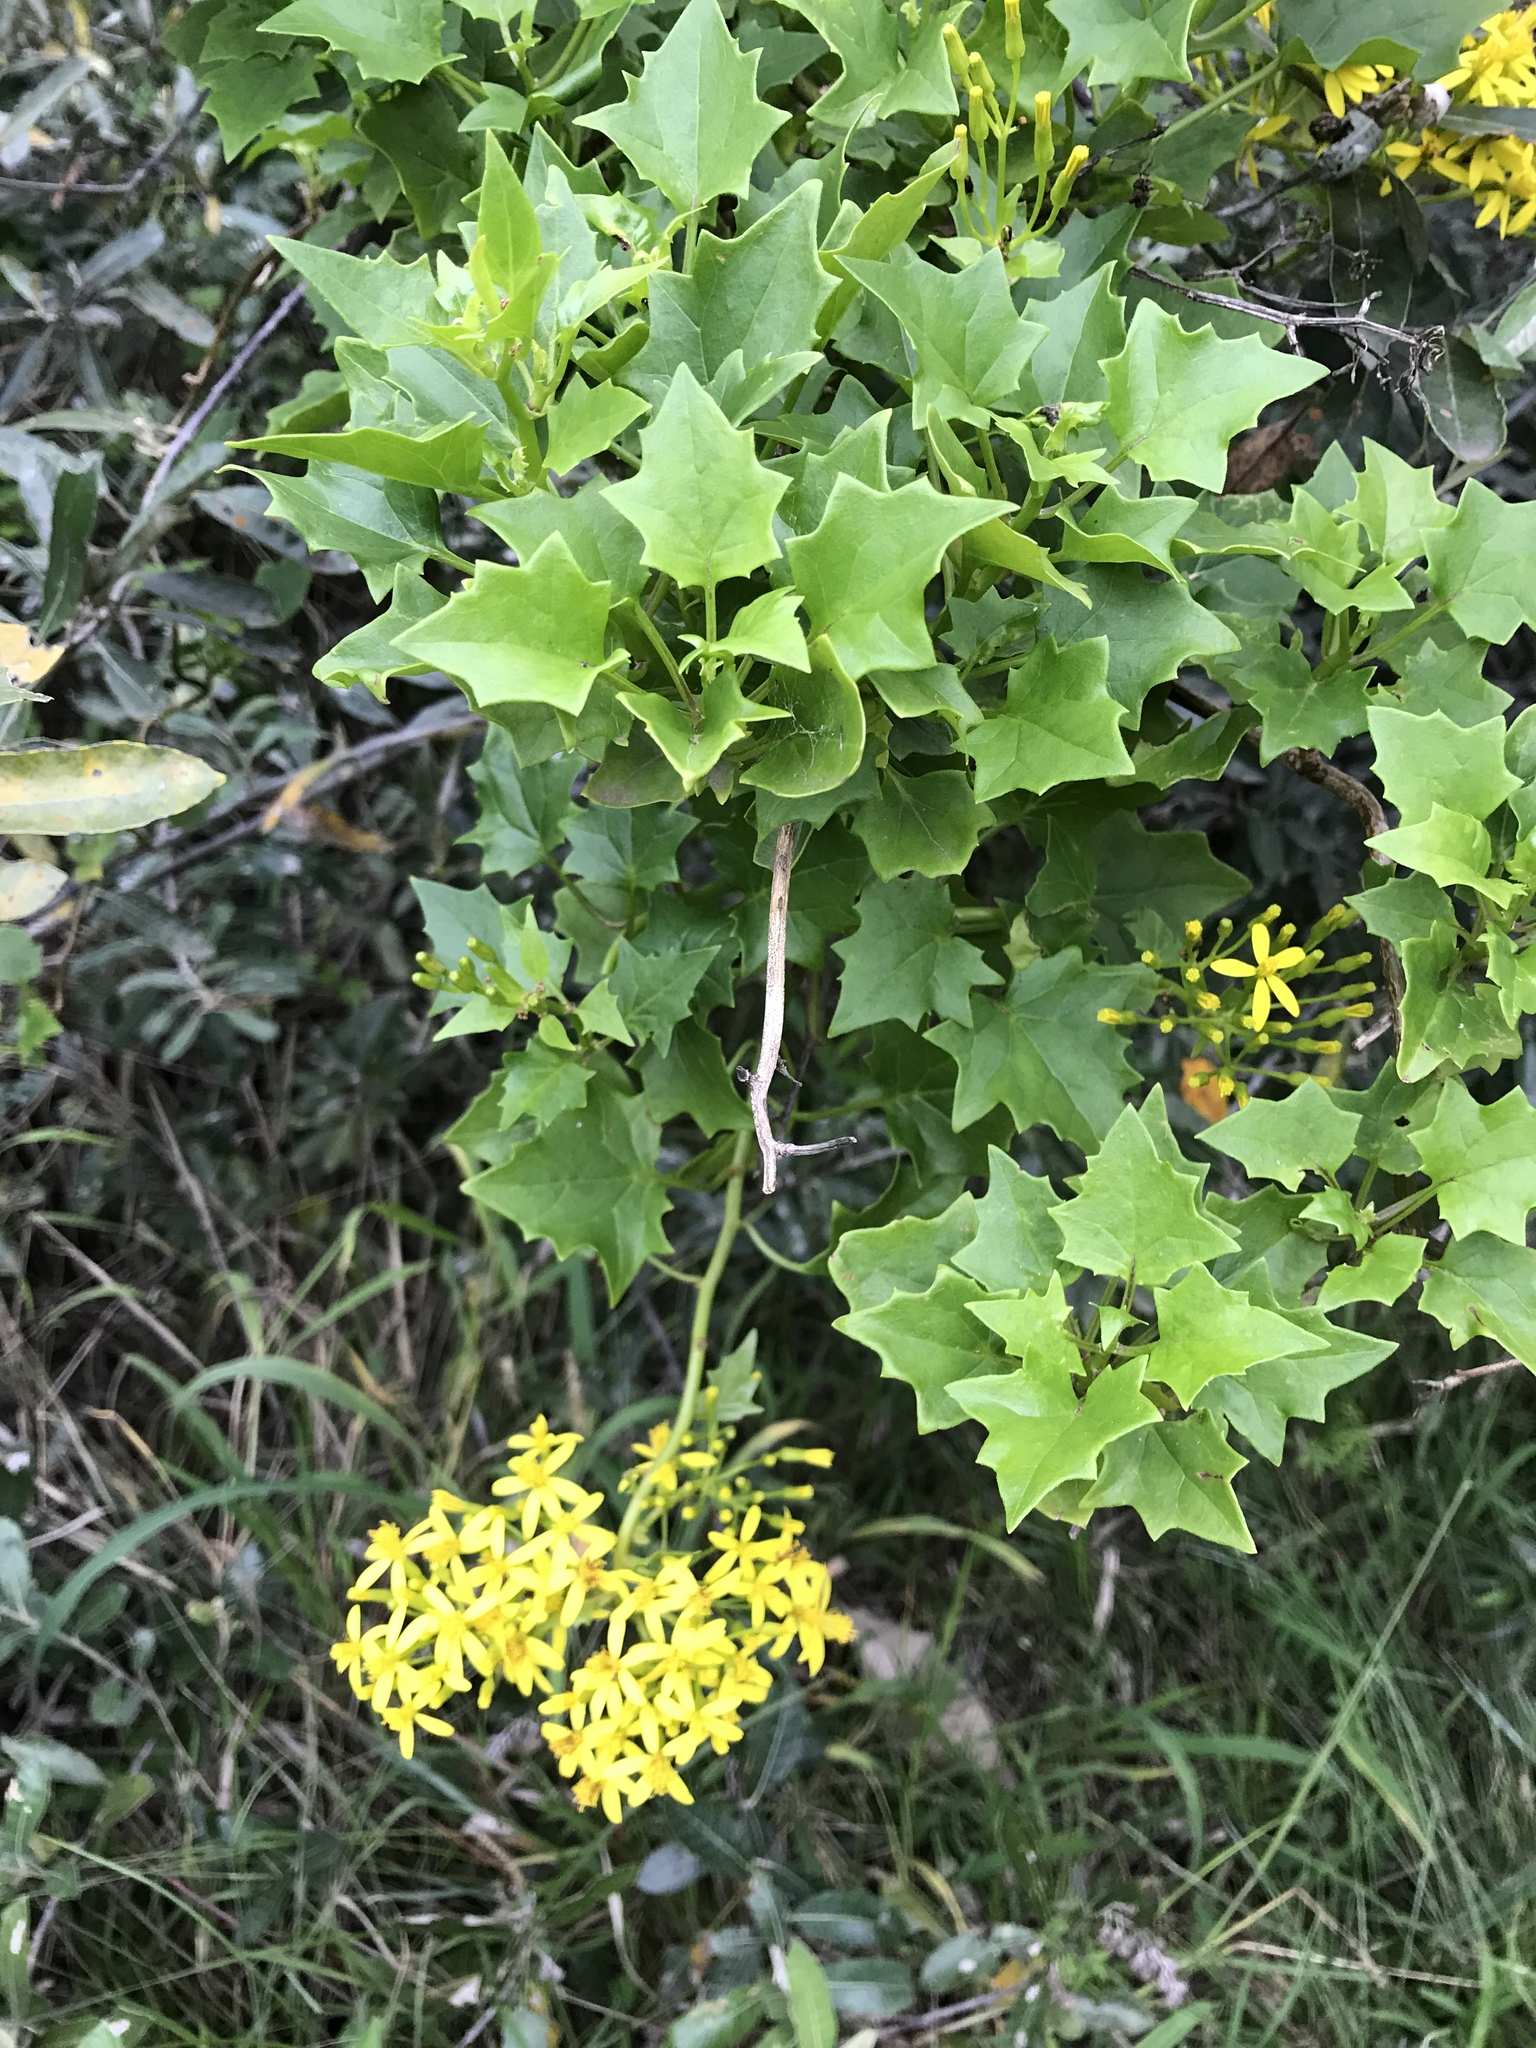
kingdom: Plantae
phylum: Tracheophyta
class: Magnoliopsida
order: Asterales
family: Asteraceae
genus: Senecio
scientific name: Senecio tamoides
